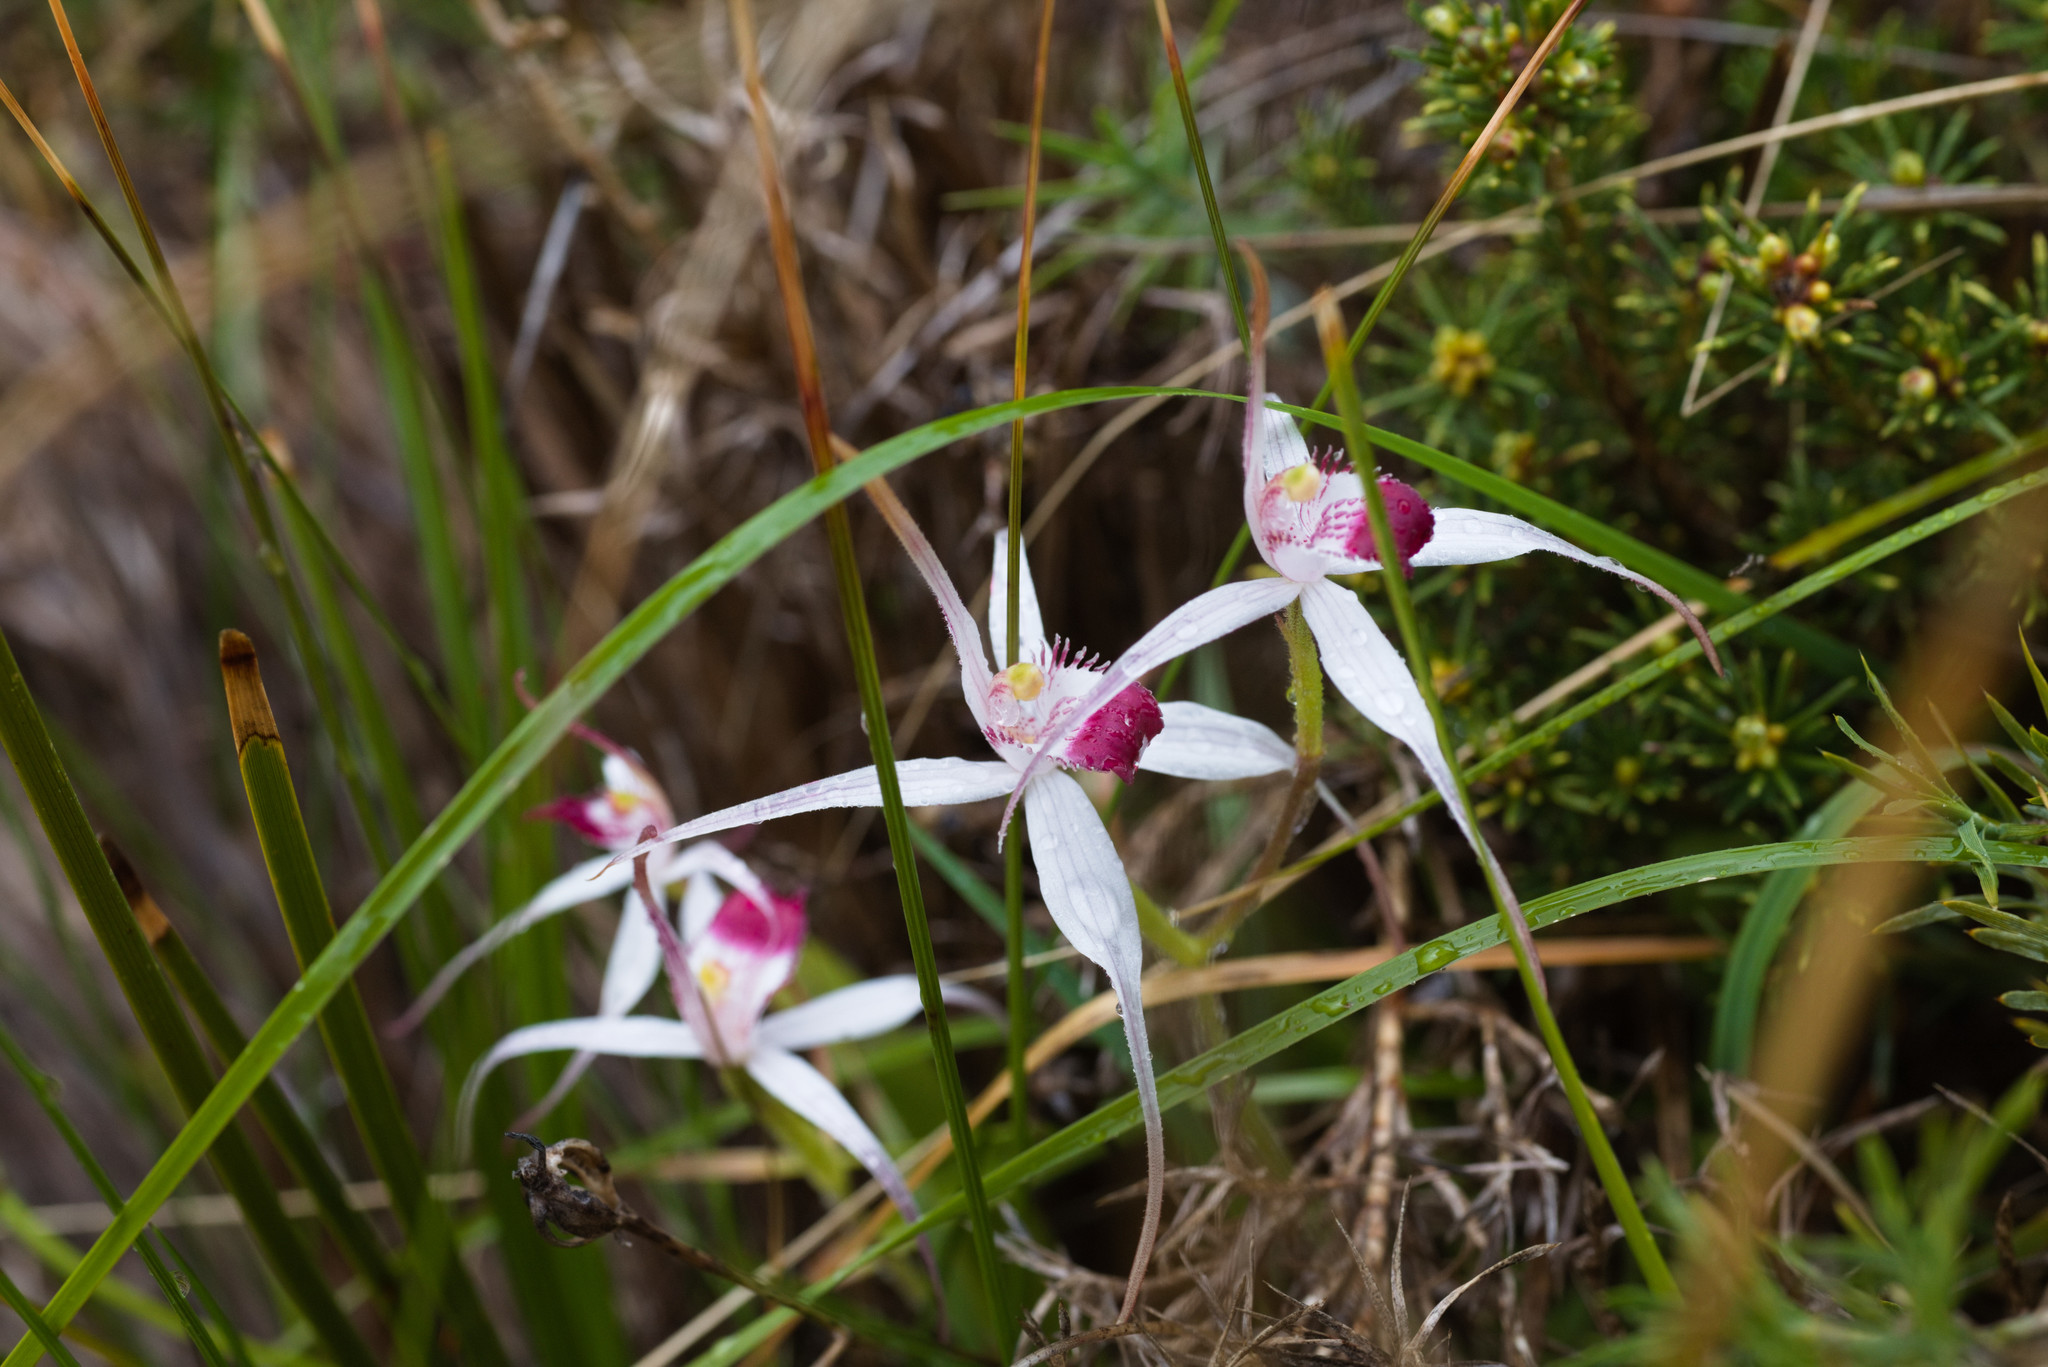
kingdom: Plantae
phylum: Tracheophyta
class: Liliopsida
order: Asparagales
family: Orchidaceae
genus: Caladenia
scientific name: Caladenia nivalis
